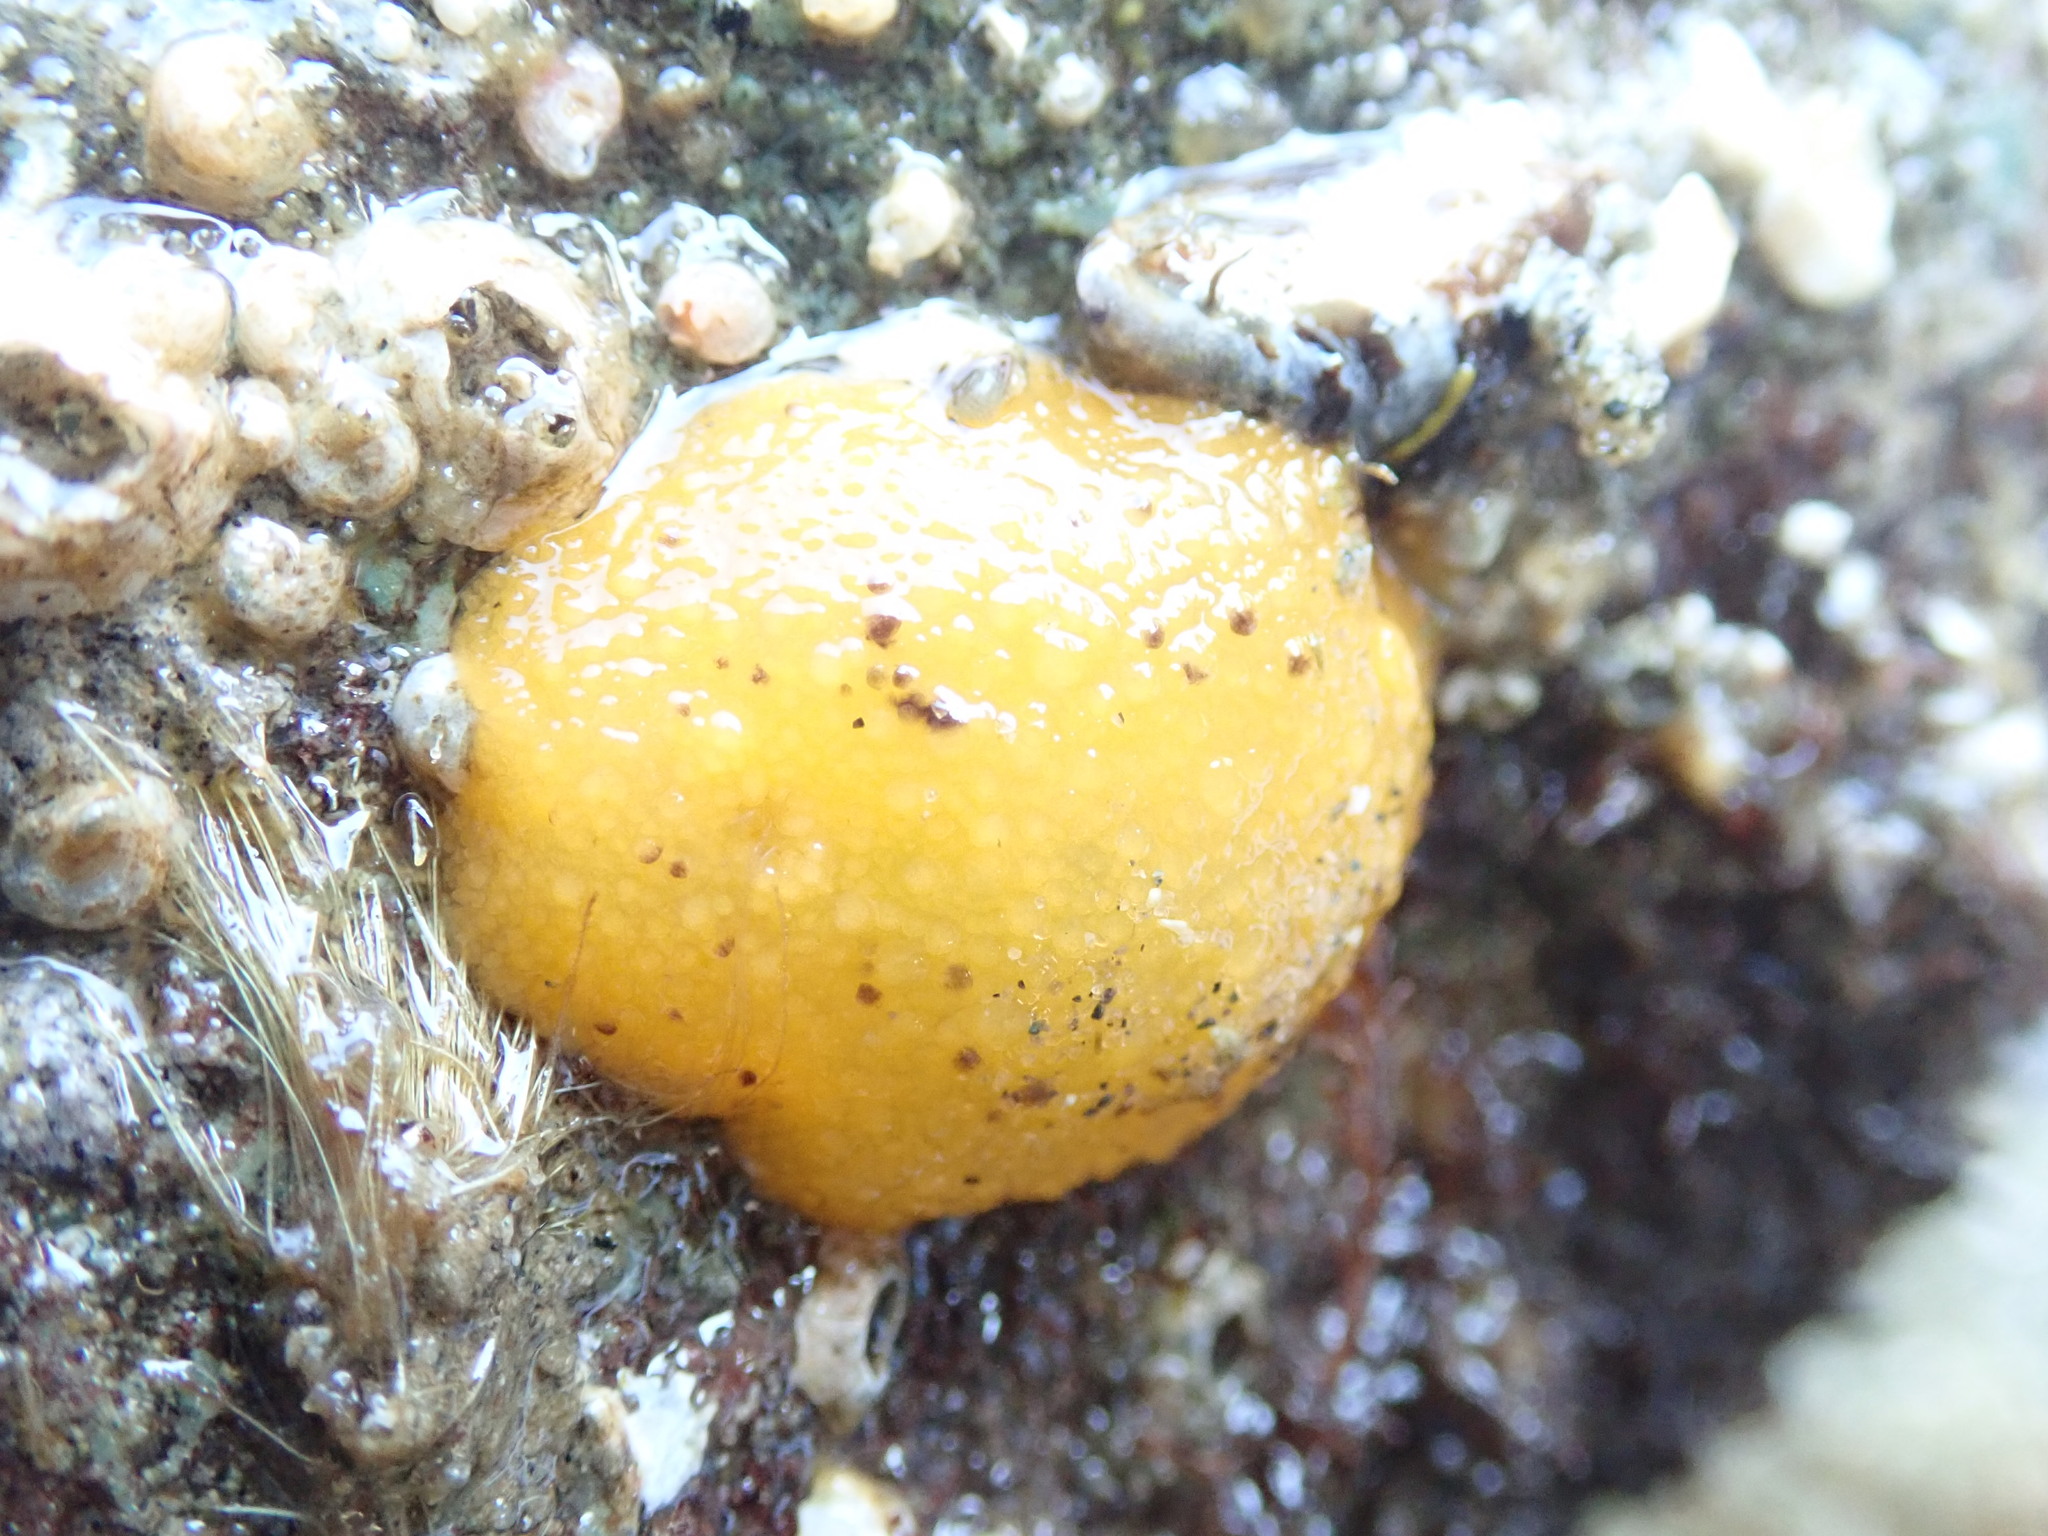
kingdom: Animalia
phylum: Mollusca
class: Gastropoda
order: Nudibranchia
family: Dorididae
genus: Doris
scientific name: Doris montereyensis
